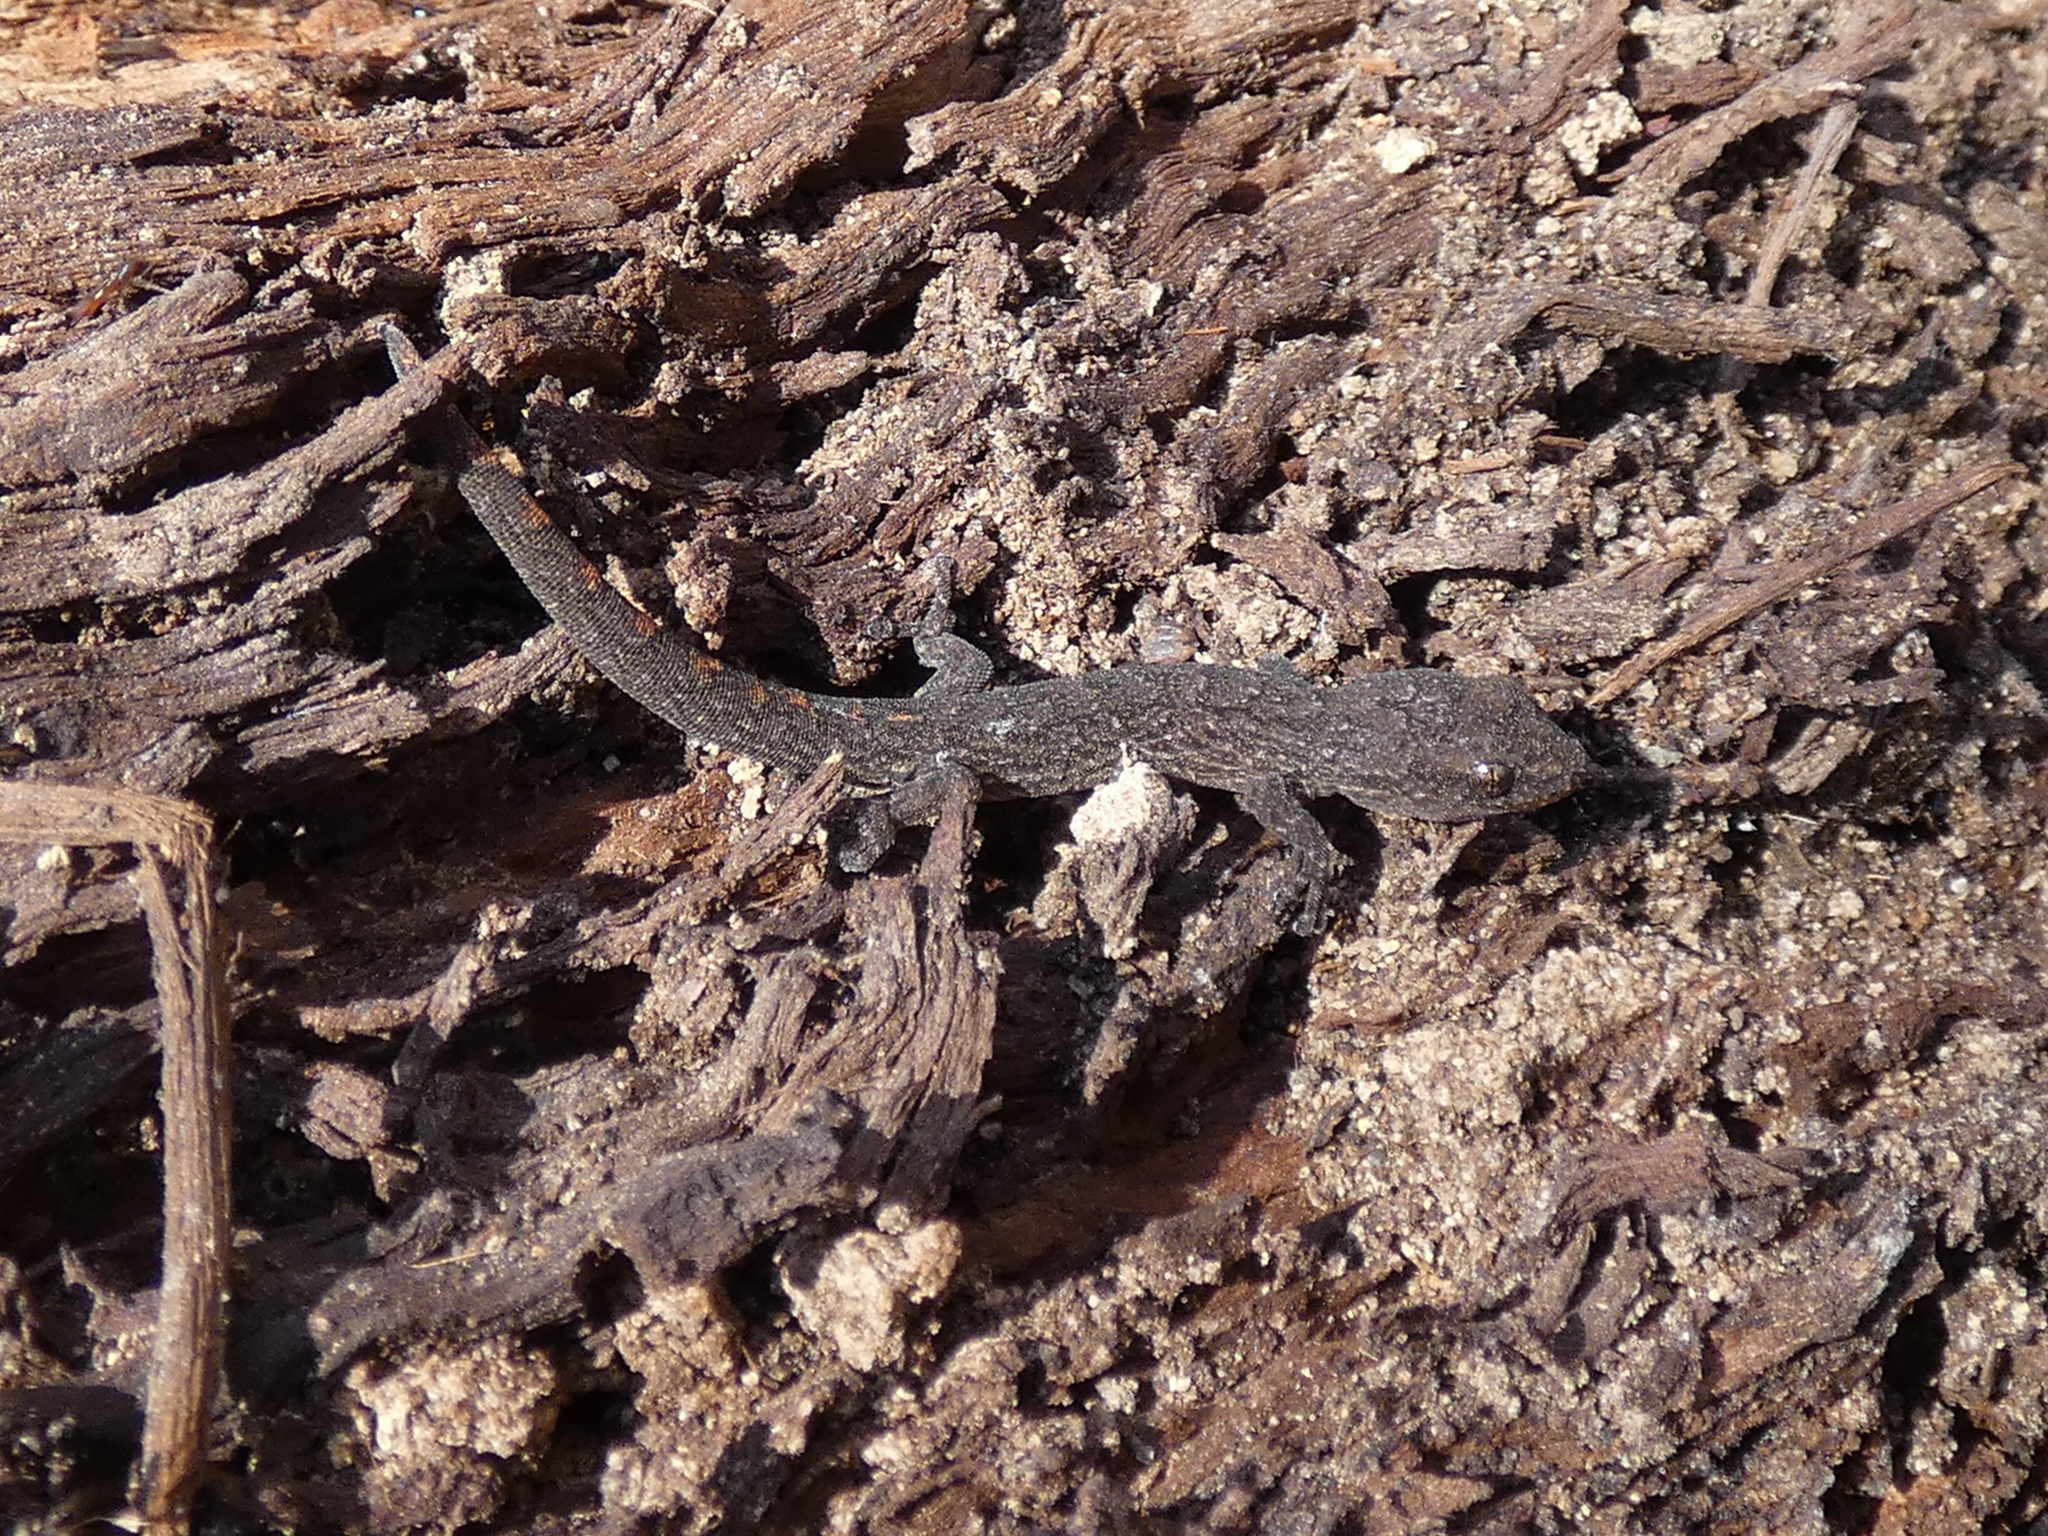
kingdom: Animalia
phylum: Chordata
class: Squamata
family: Gekkonidae
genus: Christinus
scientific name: Christinus marmoratus
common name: Marbled gecko
